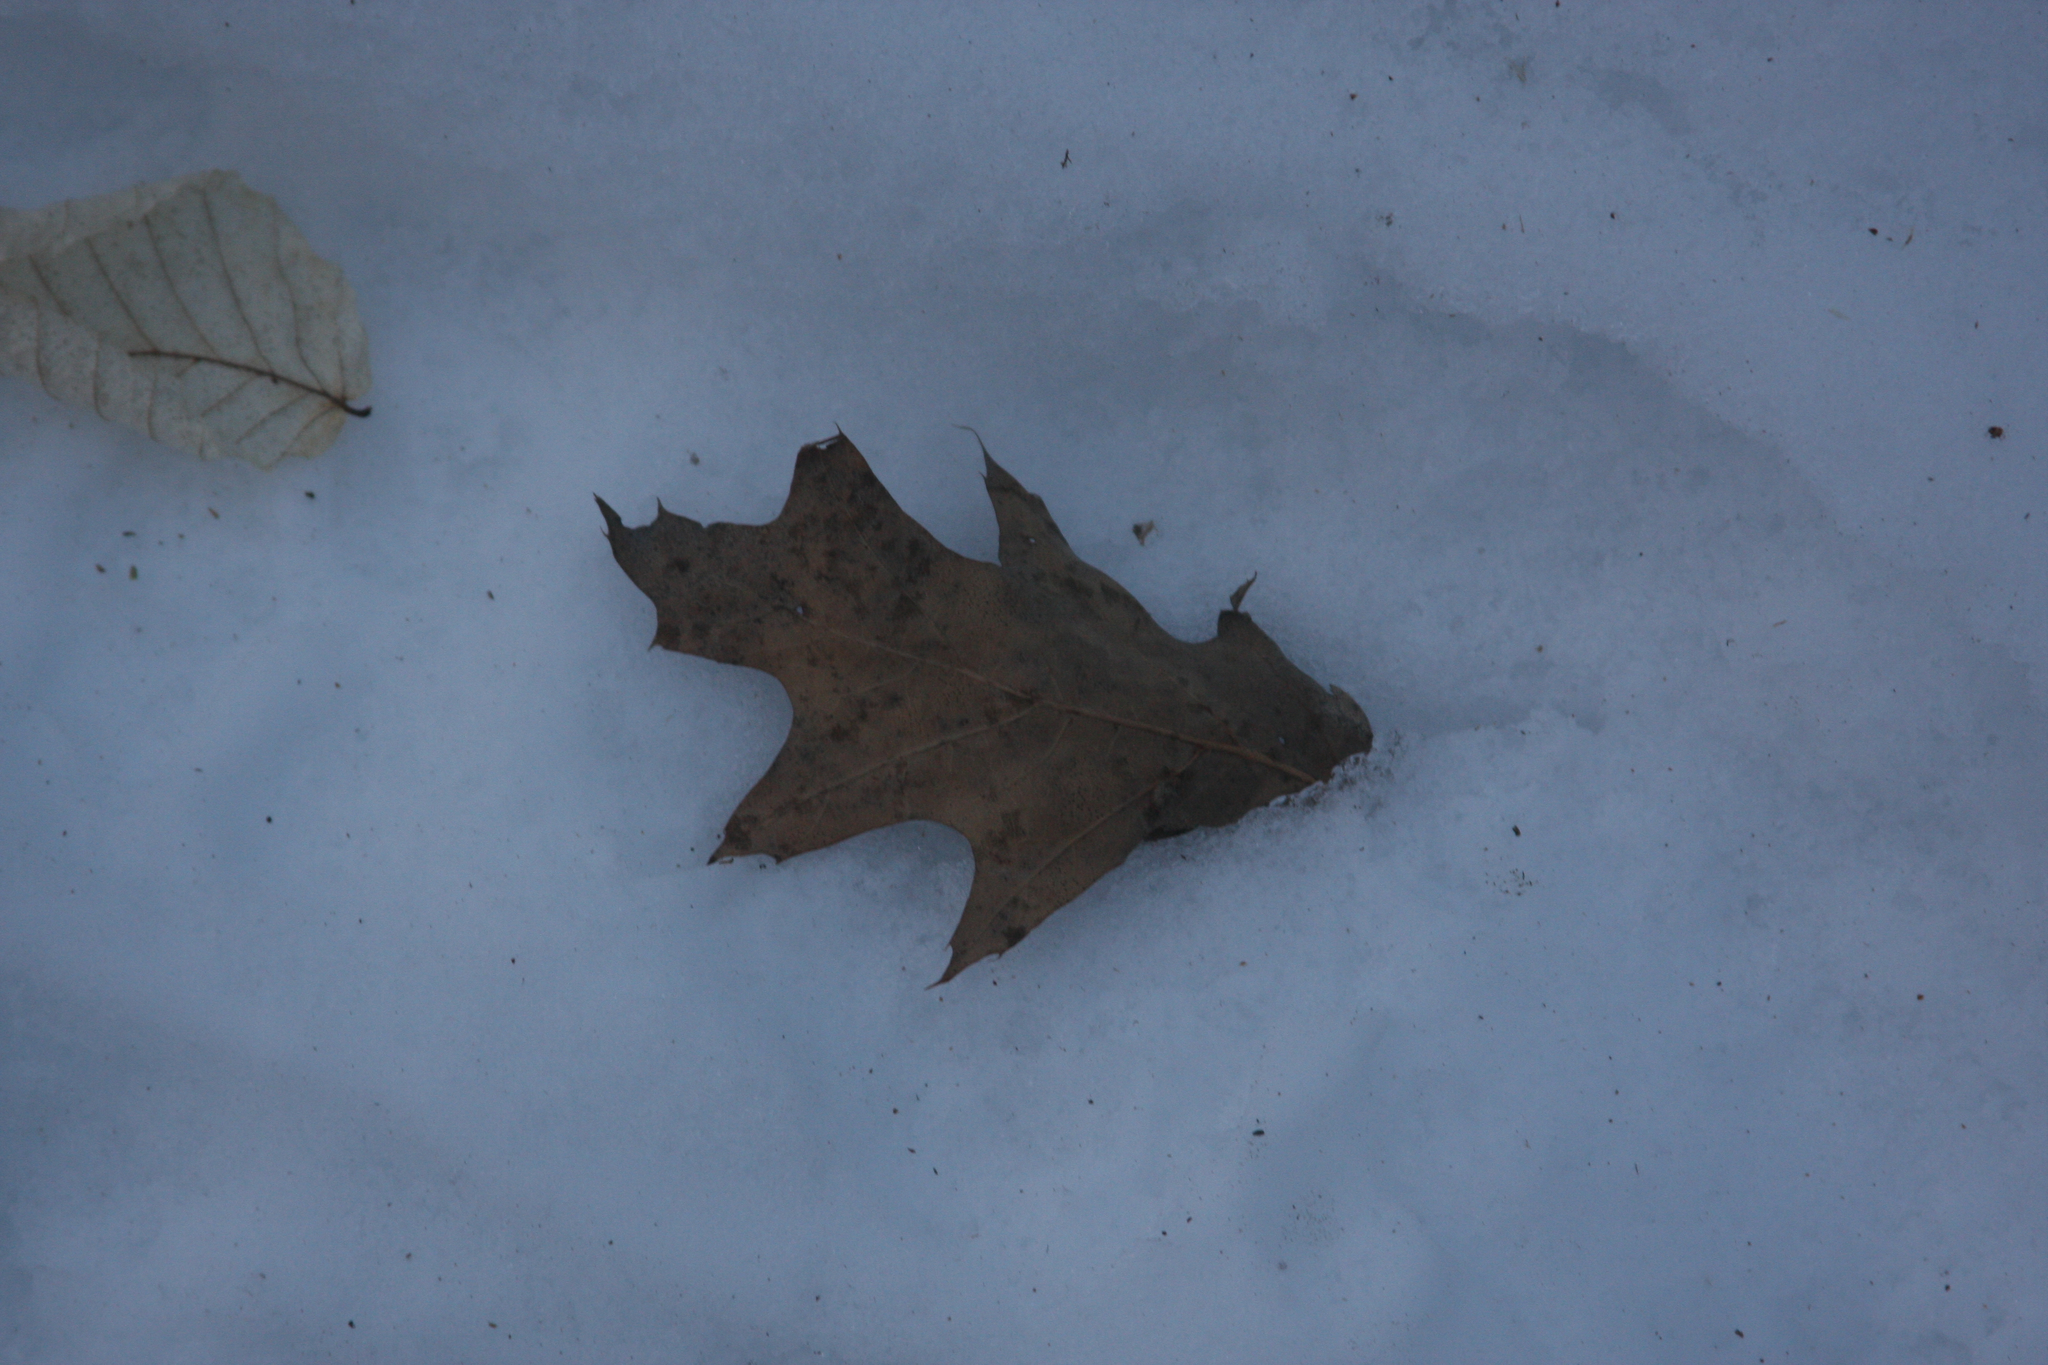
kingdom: Plantae
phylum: Tracheophyta
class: Magnoliopsida
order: Fagales
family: Fagaceae
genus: Quercus
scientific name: Quercus rubra
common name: Red oak
